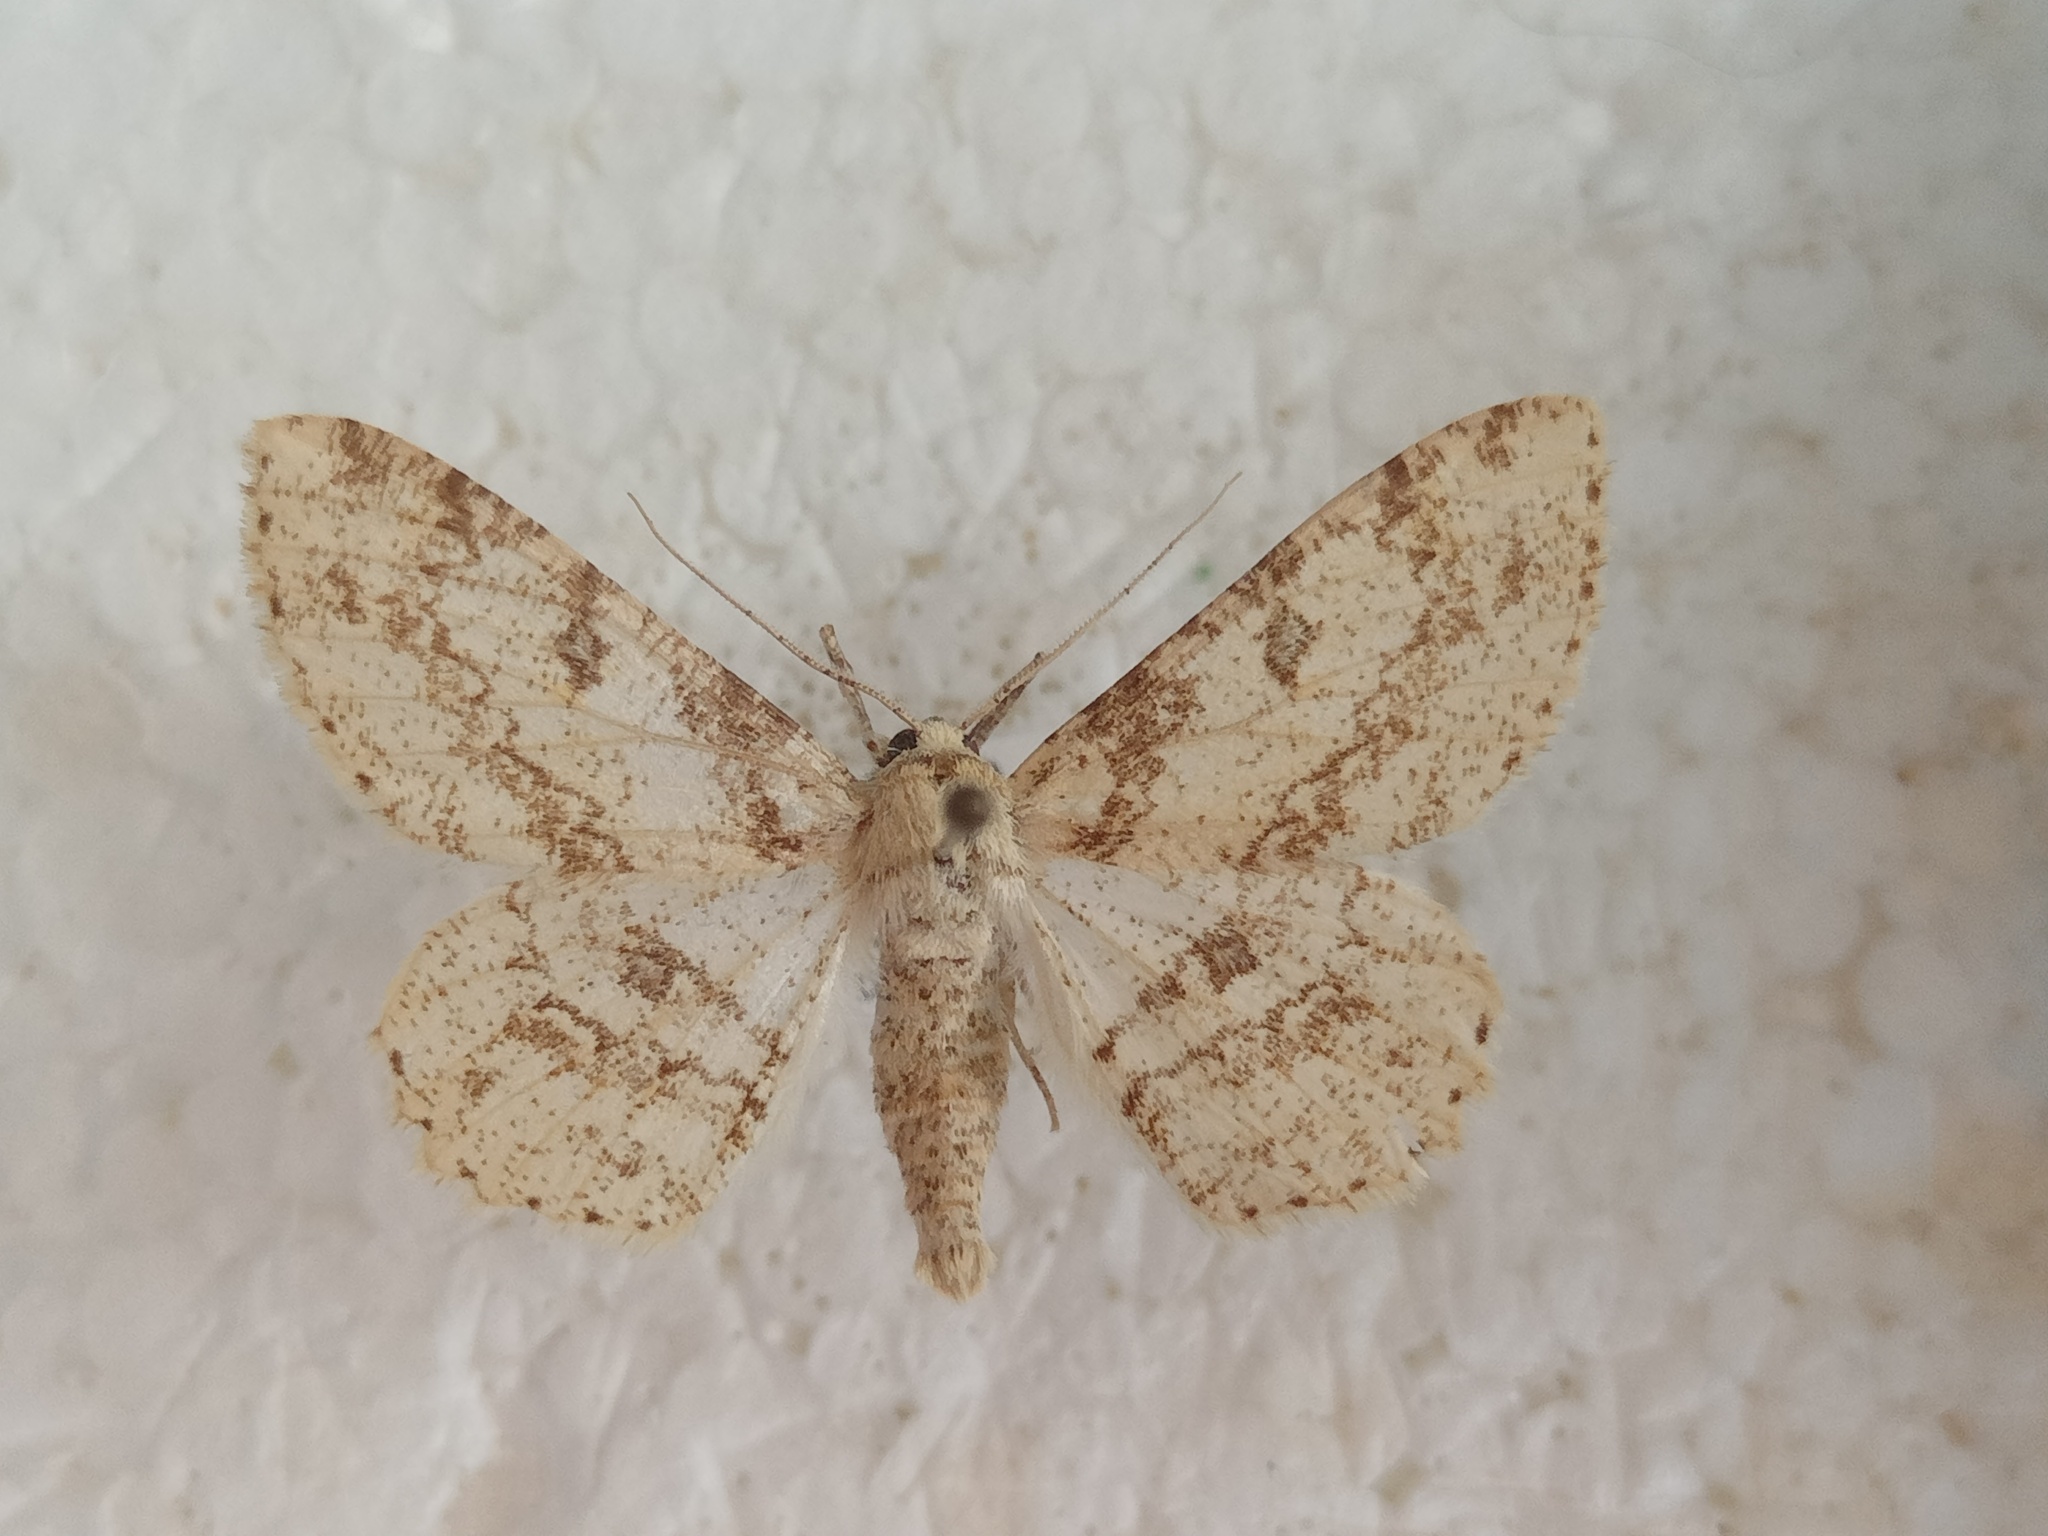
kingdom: Animalia
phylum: Arthropoda
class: Insecta
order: Lepidoptera
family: Geometridae
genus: Ascotis
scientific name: Ascotis selenaria
